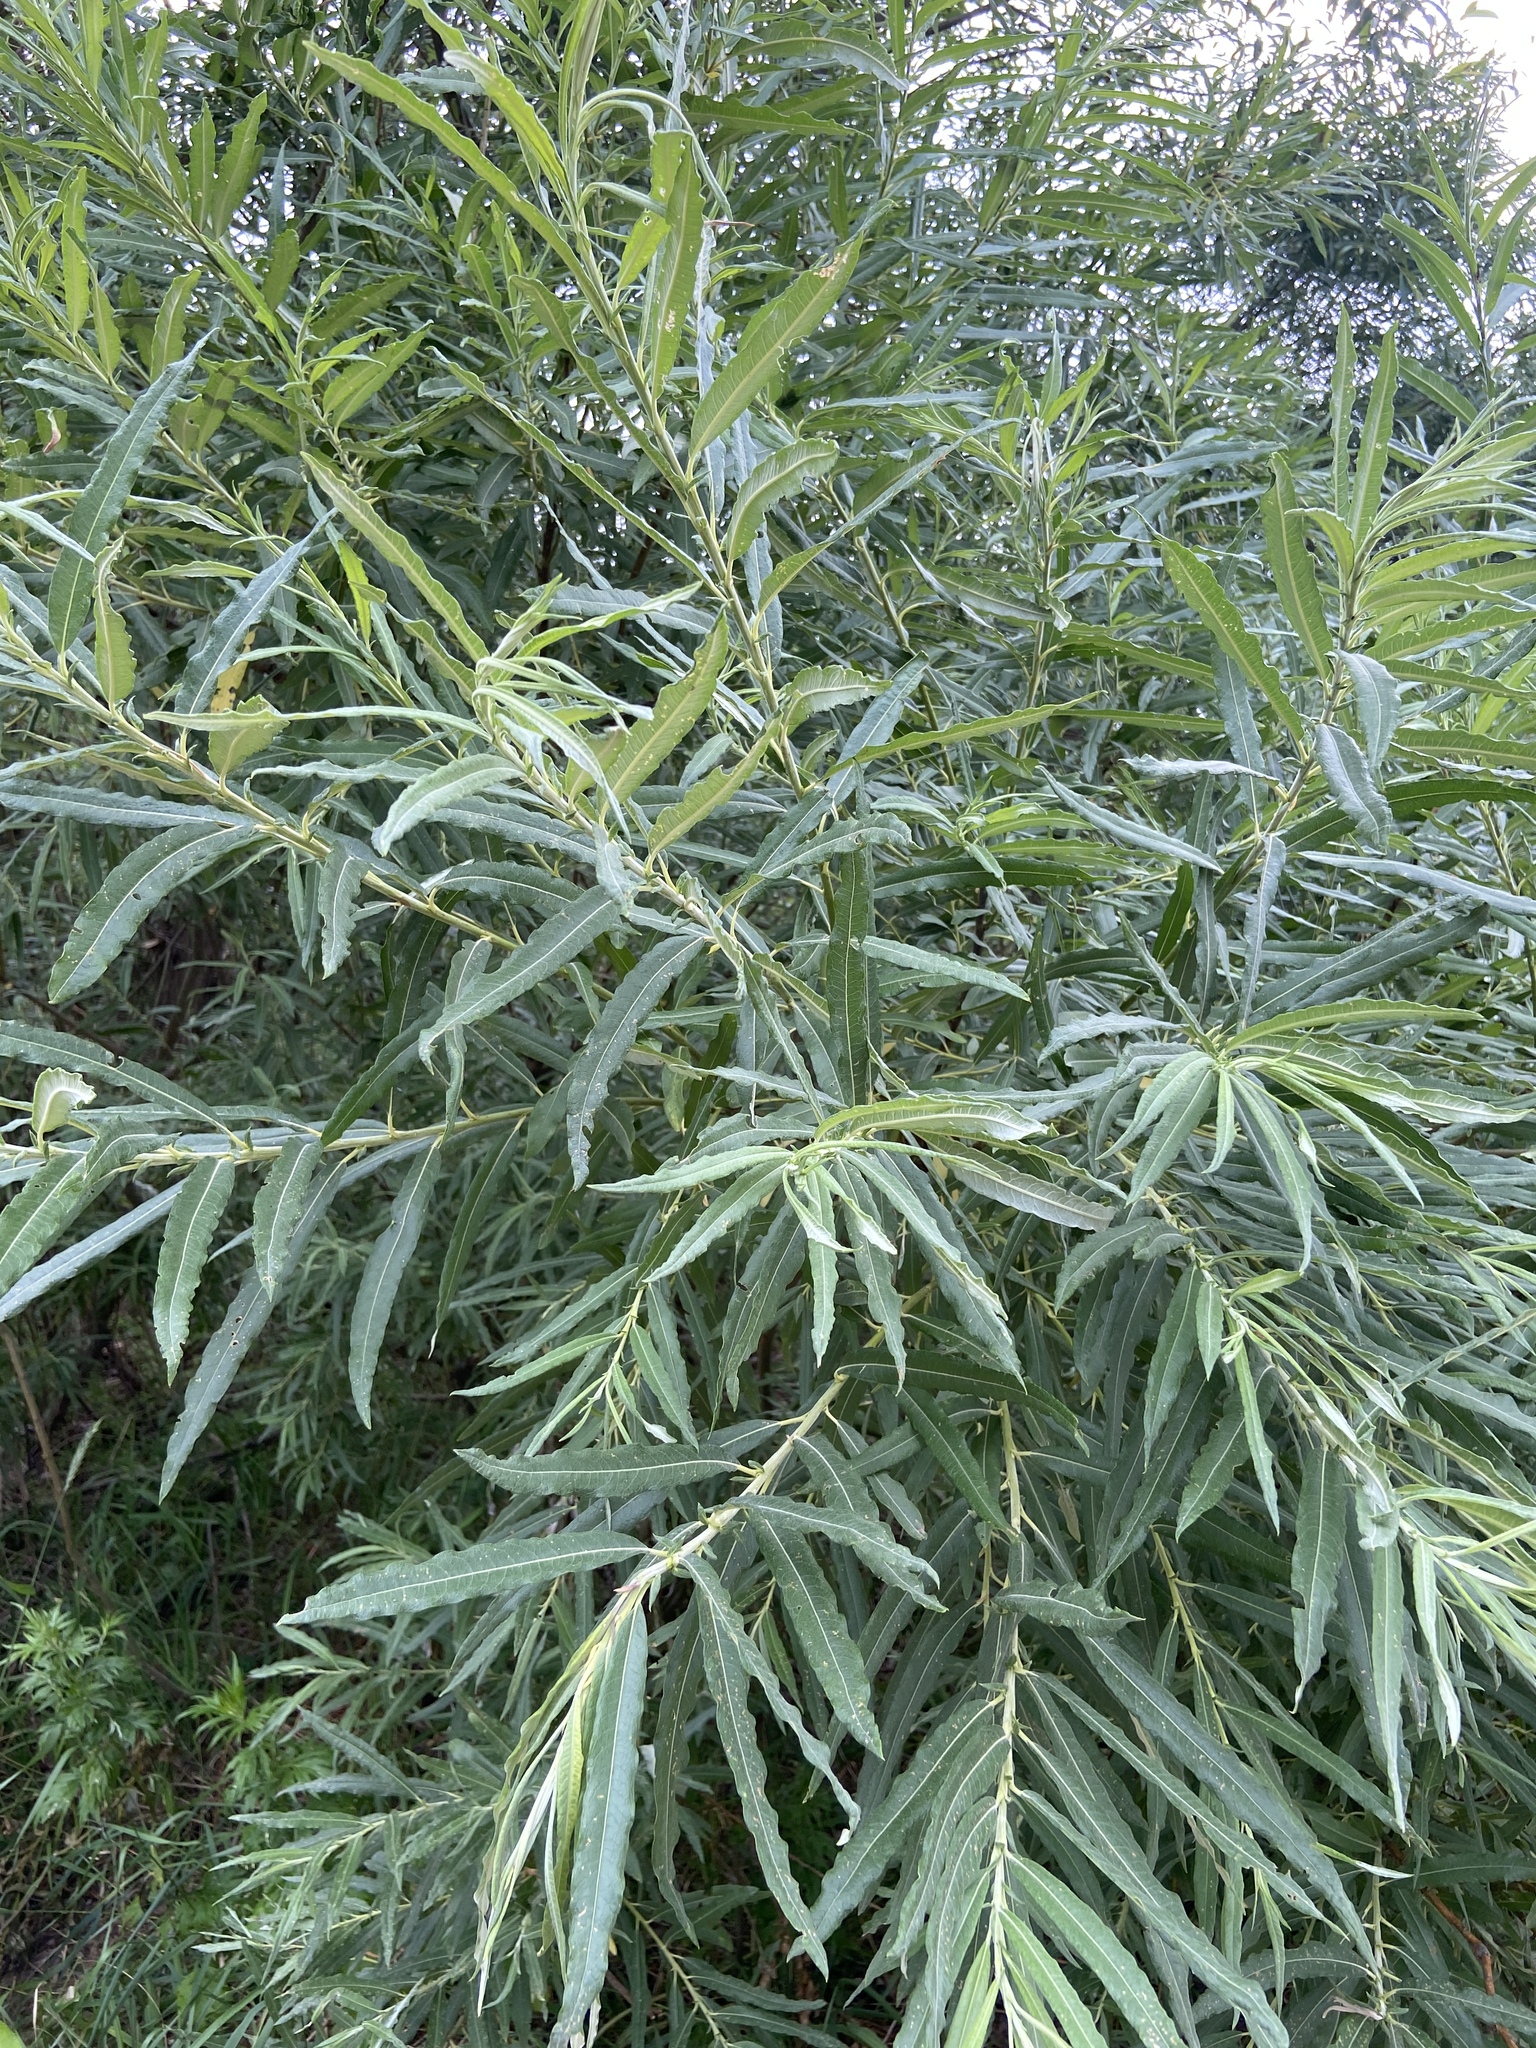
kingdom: Plantae
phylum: Tracheophyta
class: Magnoliopsida
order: Malpighiales
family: Salicaceae
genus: Salix
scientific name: Salix viminalis
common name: Osier
